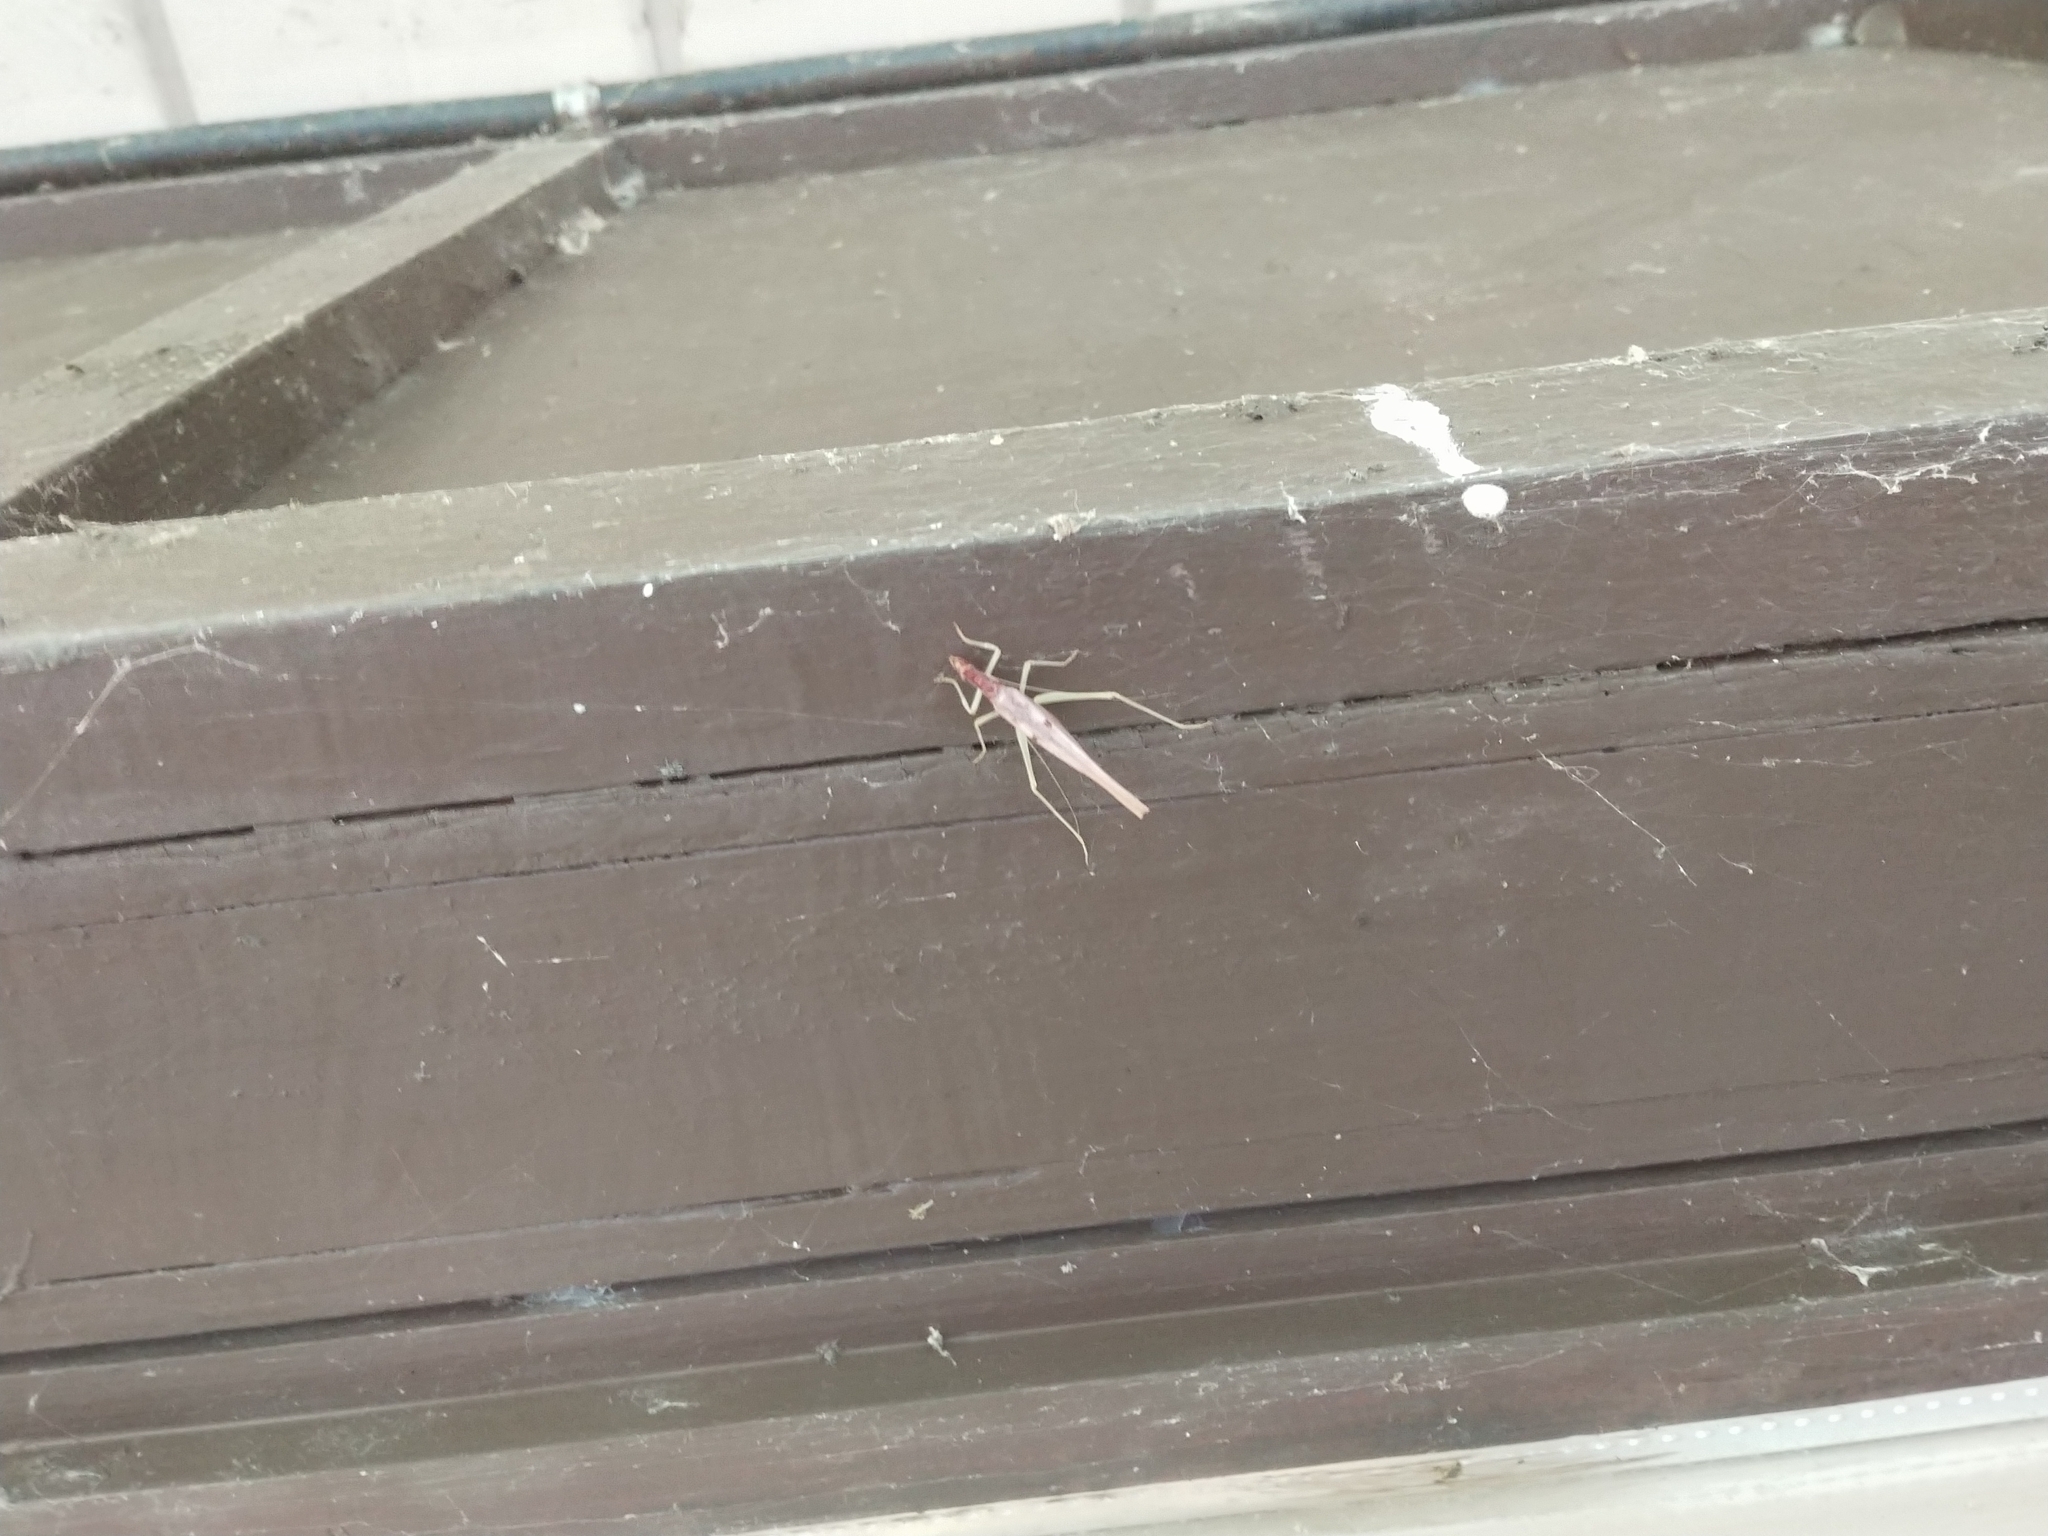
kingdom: Animalia
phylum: Arthropoda
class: Insecta
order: Orthoptera
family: Gryllidae
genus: Neoxabea
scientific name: Neoxabea bipunctata
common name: Two-spotted tree cricket
